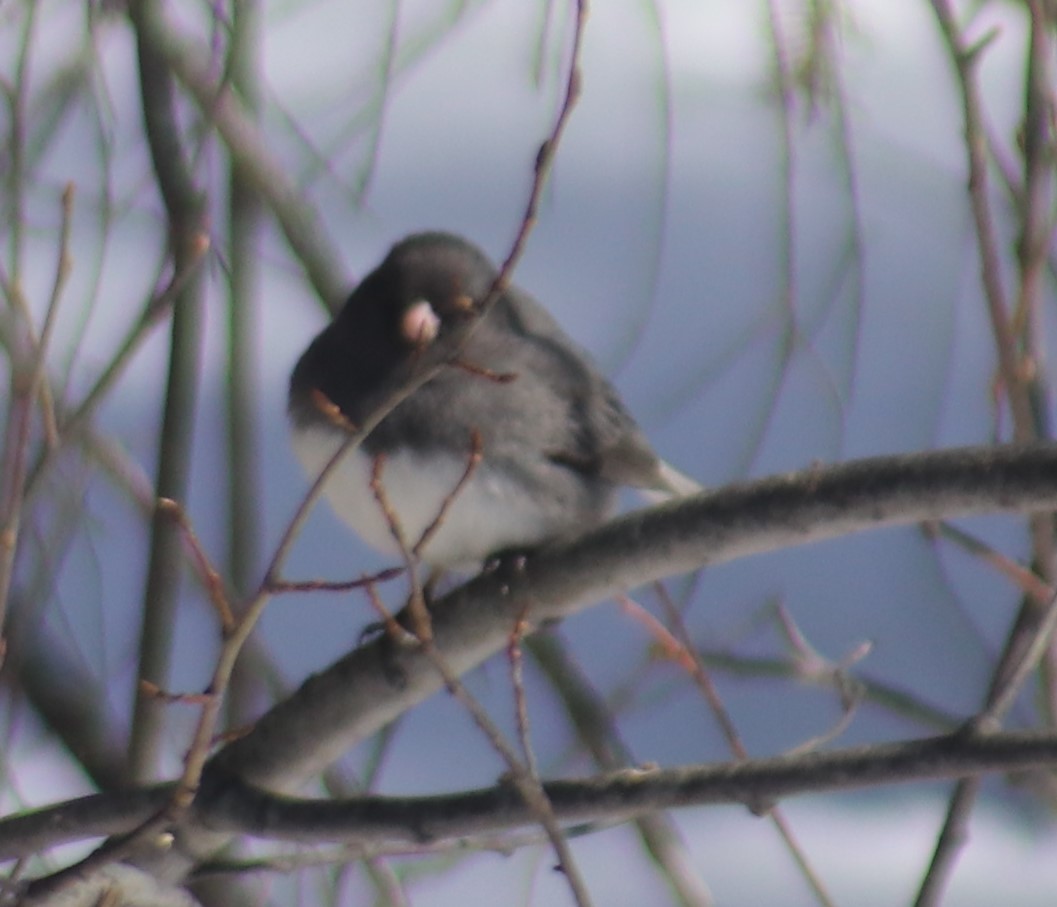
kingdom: Animalia
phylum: Chordata
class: Aves
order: Passeriformes
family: Passerellidae
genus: Junco
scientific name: Junco hyemalis
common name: Dark-eyed junco
